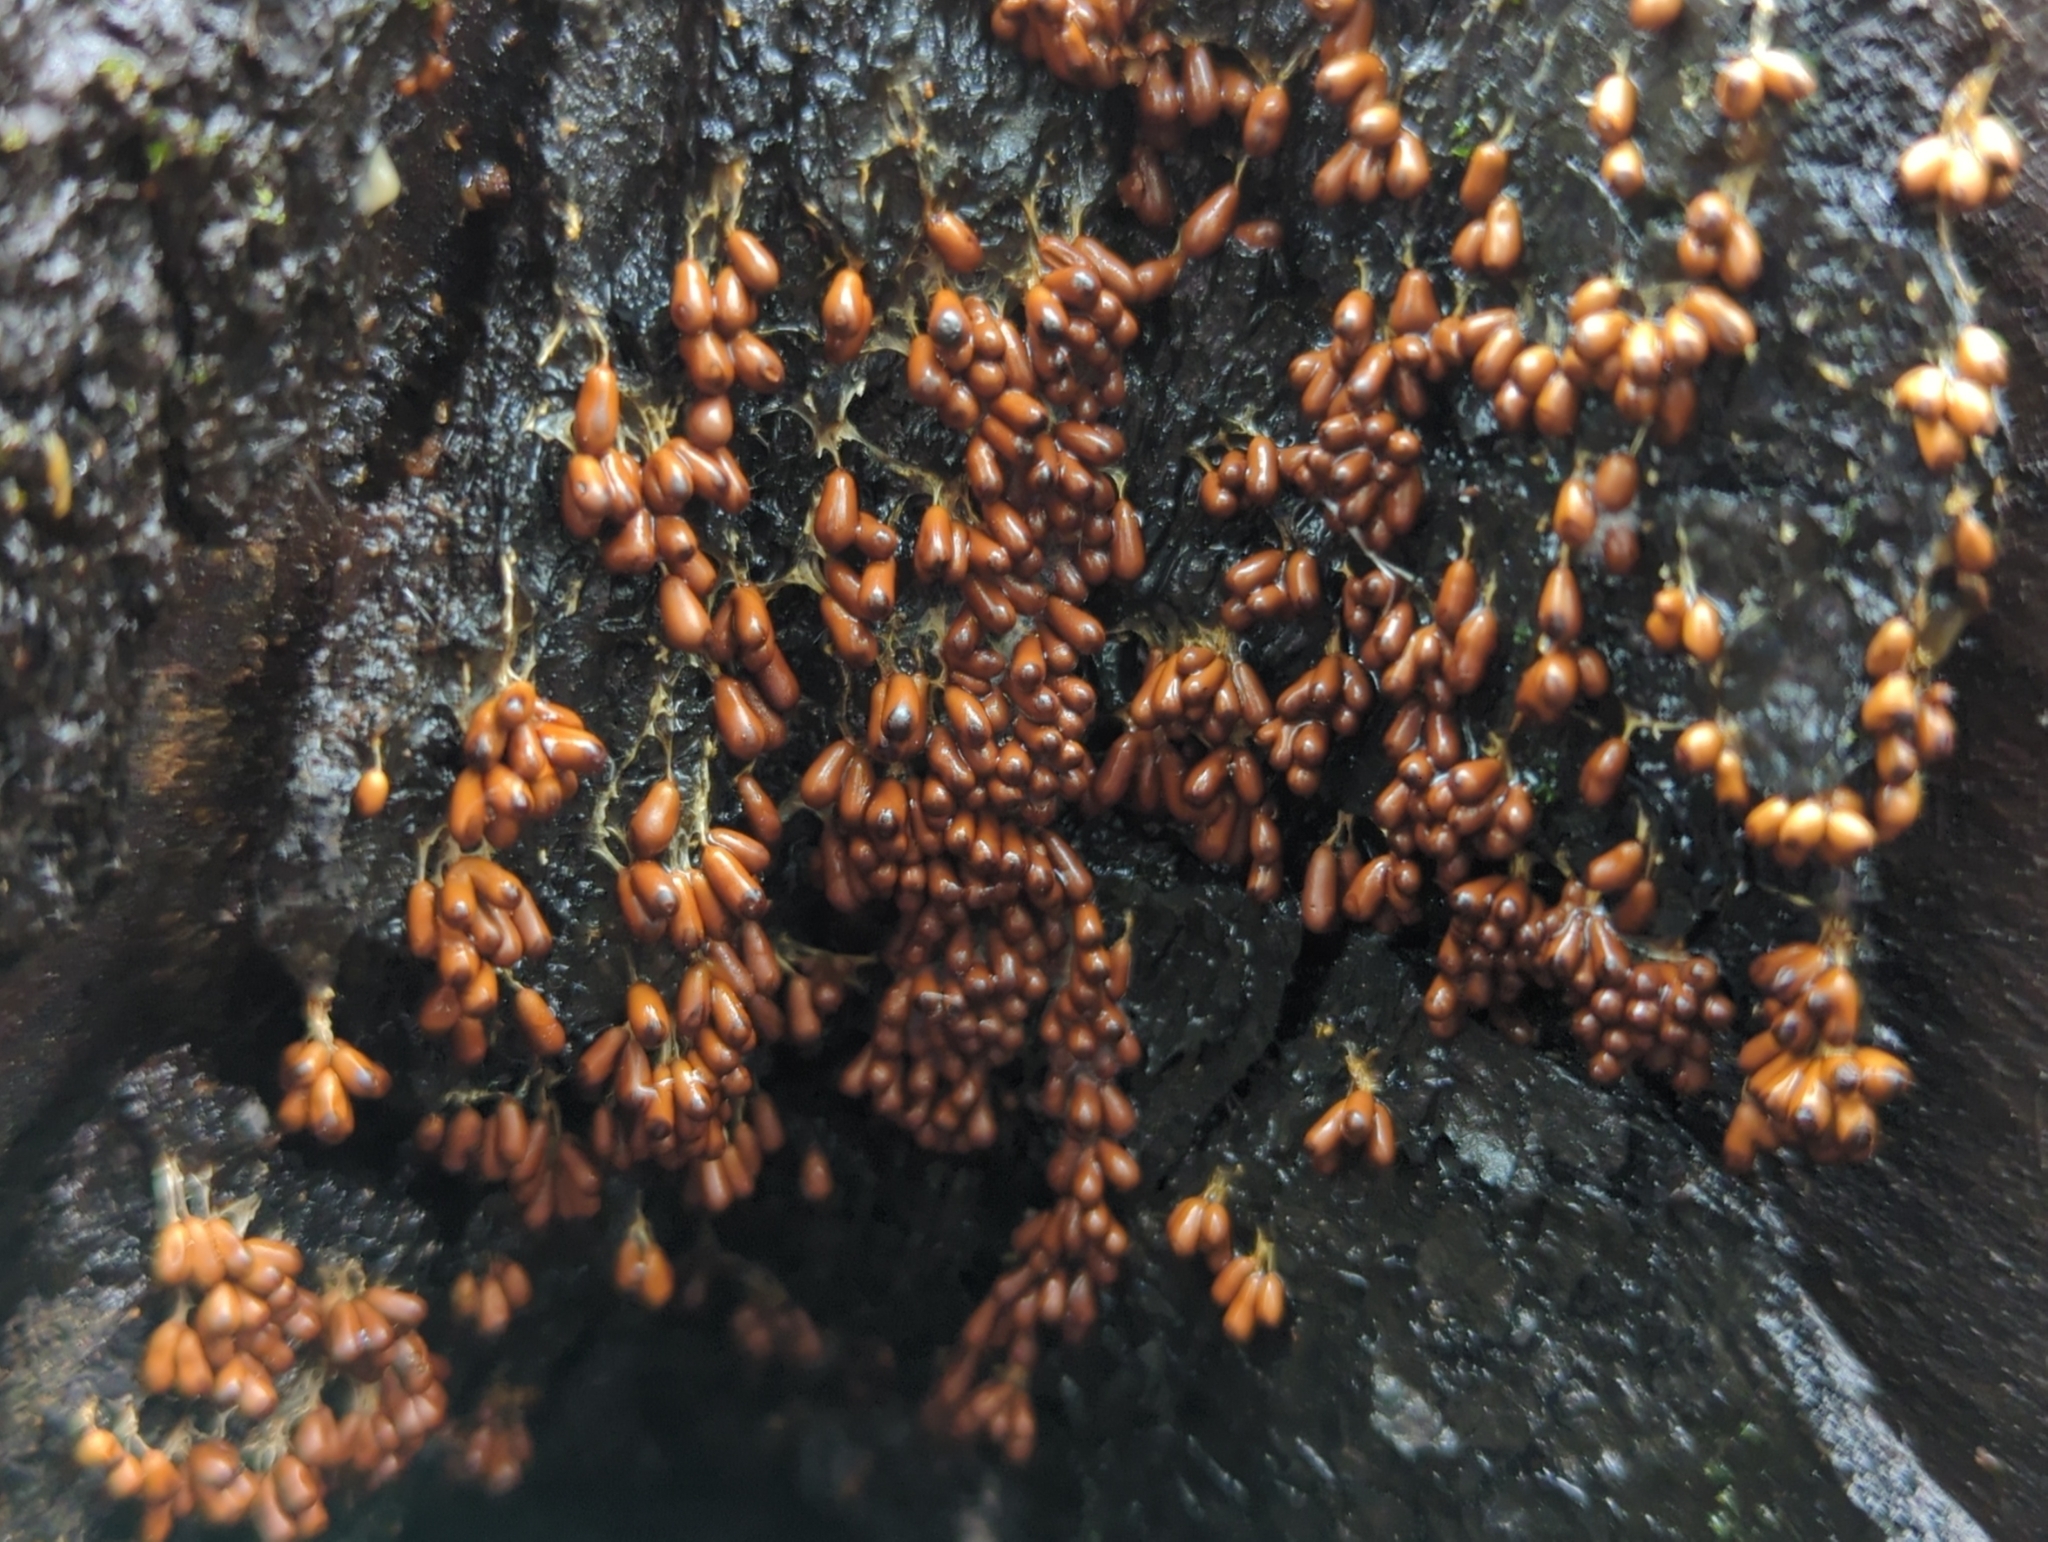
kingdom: Protozoa
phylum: Mycetozoa
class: Myxomycetes
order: Physarales
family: Physaraceae
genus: Leocarpus
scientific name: Leocarpus fragilis
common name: Insect-egg slime
